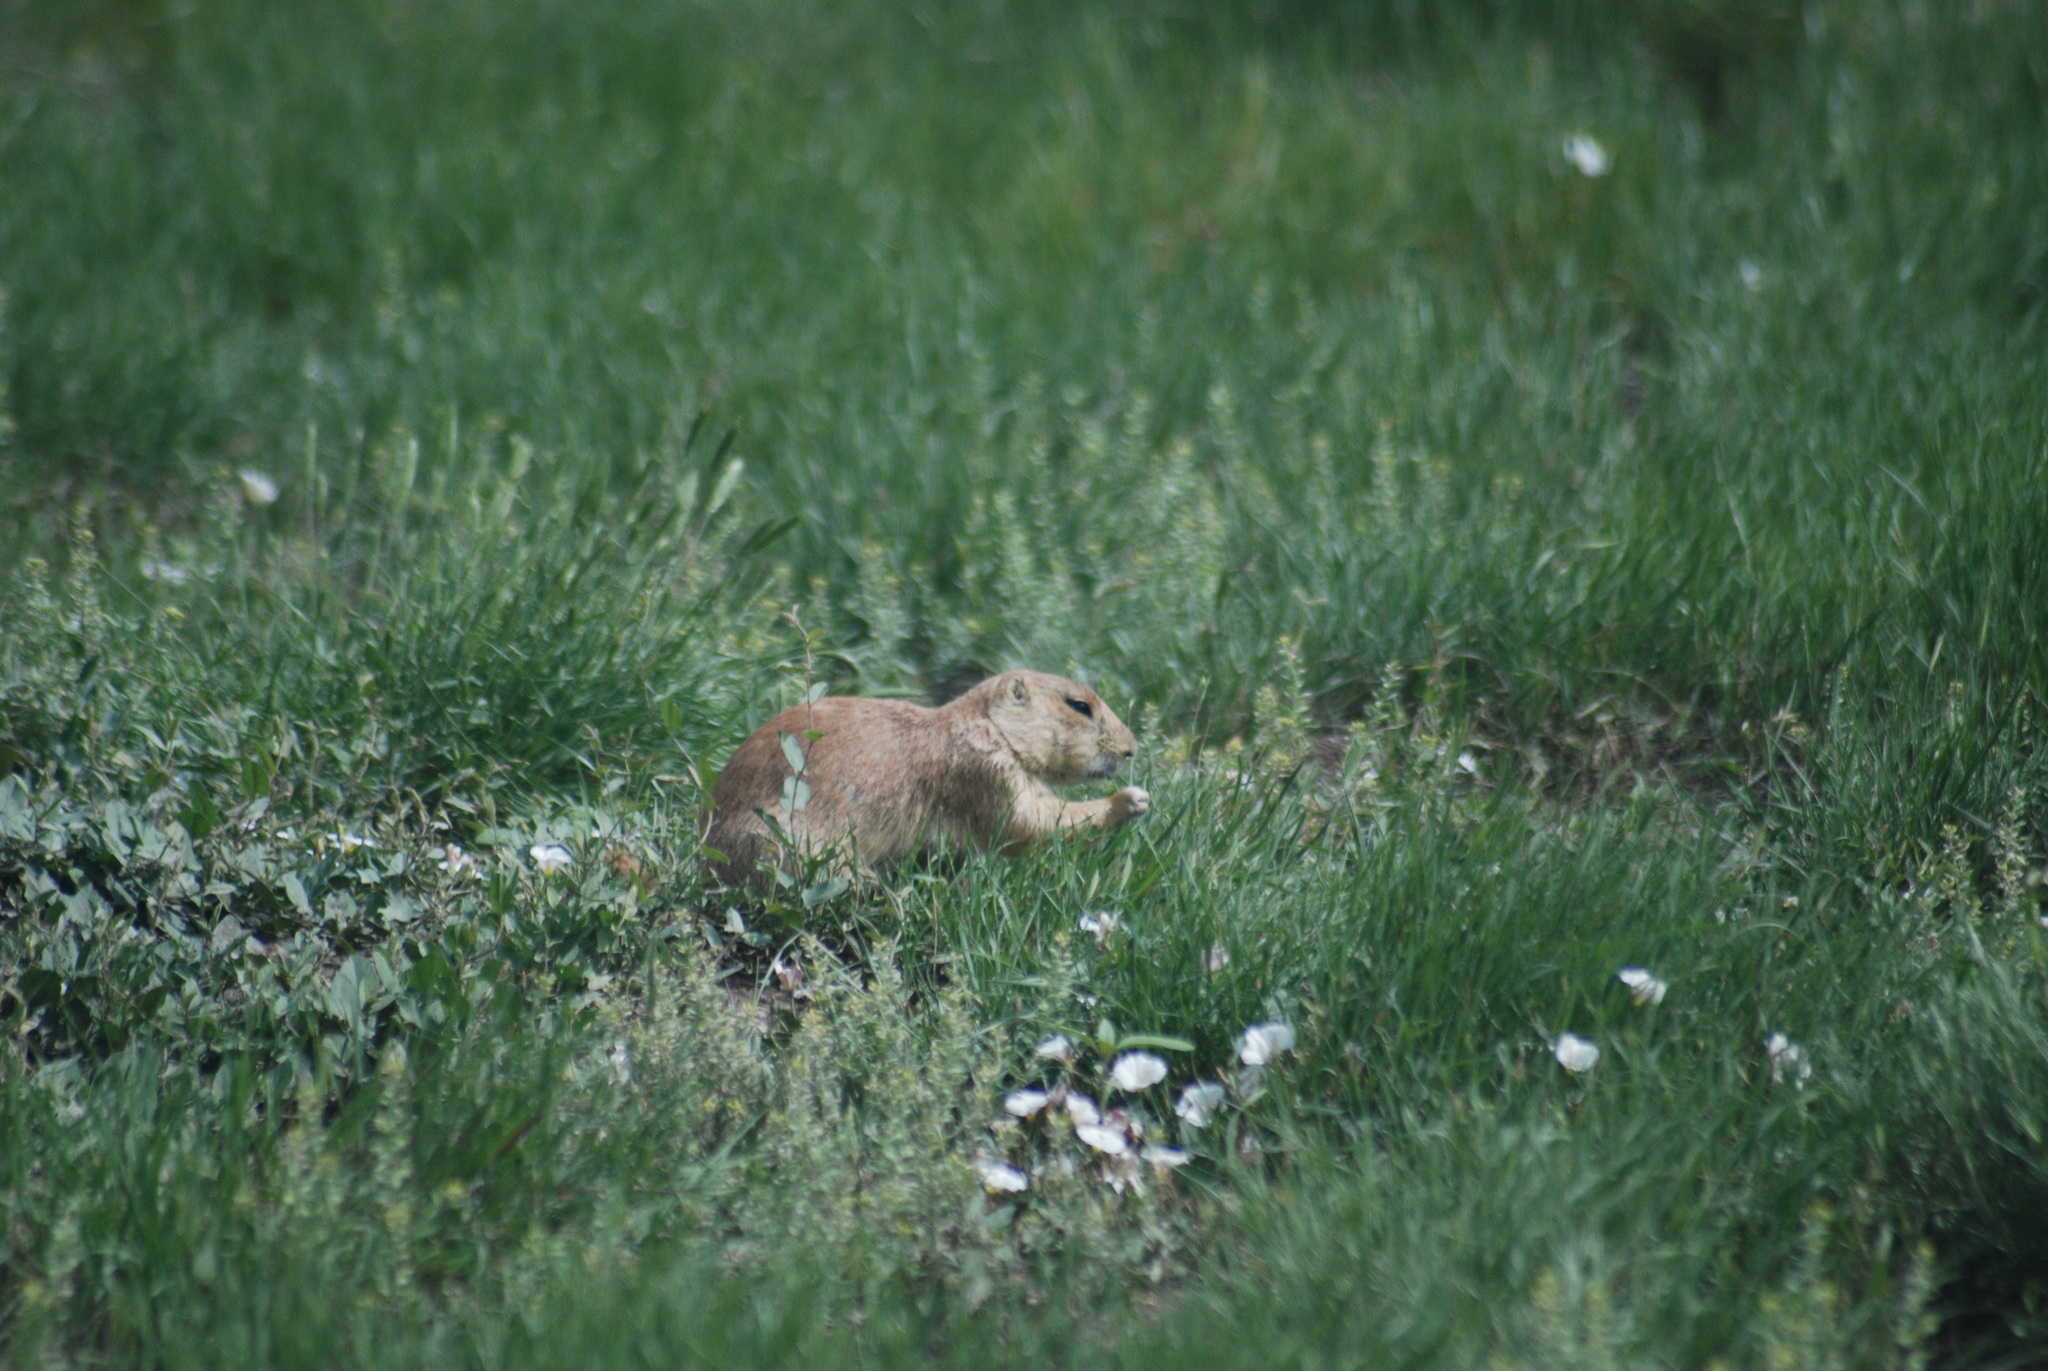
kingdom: Plantae
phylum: Tracheophyta
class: Magnoliopsida
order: Solanales
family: Convolvulaceae
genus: Convolvulus
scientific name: Convolvulus arvensis
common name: Field bindweed
